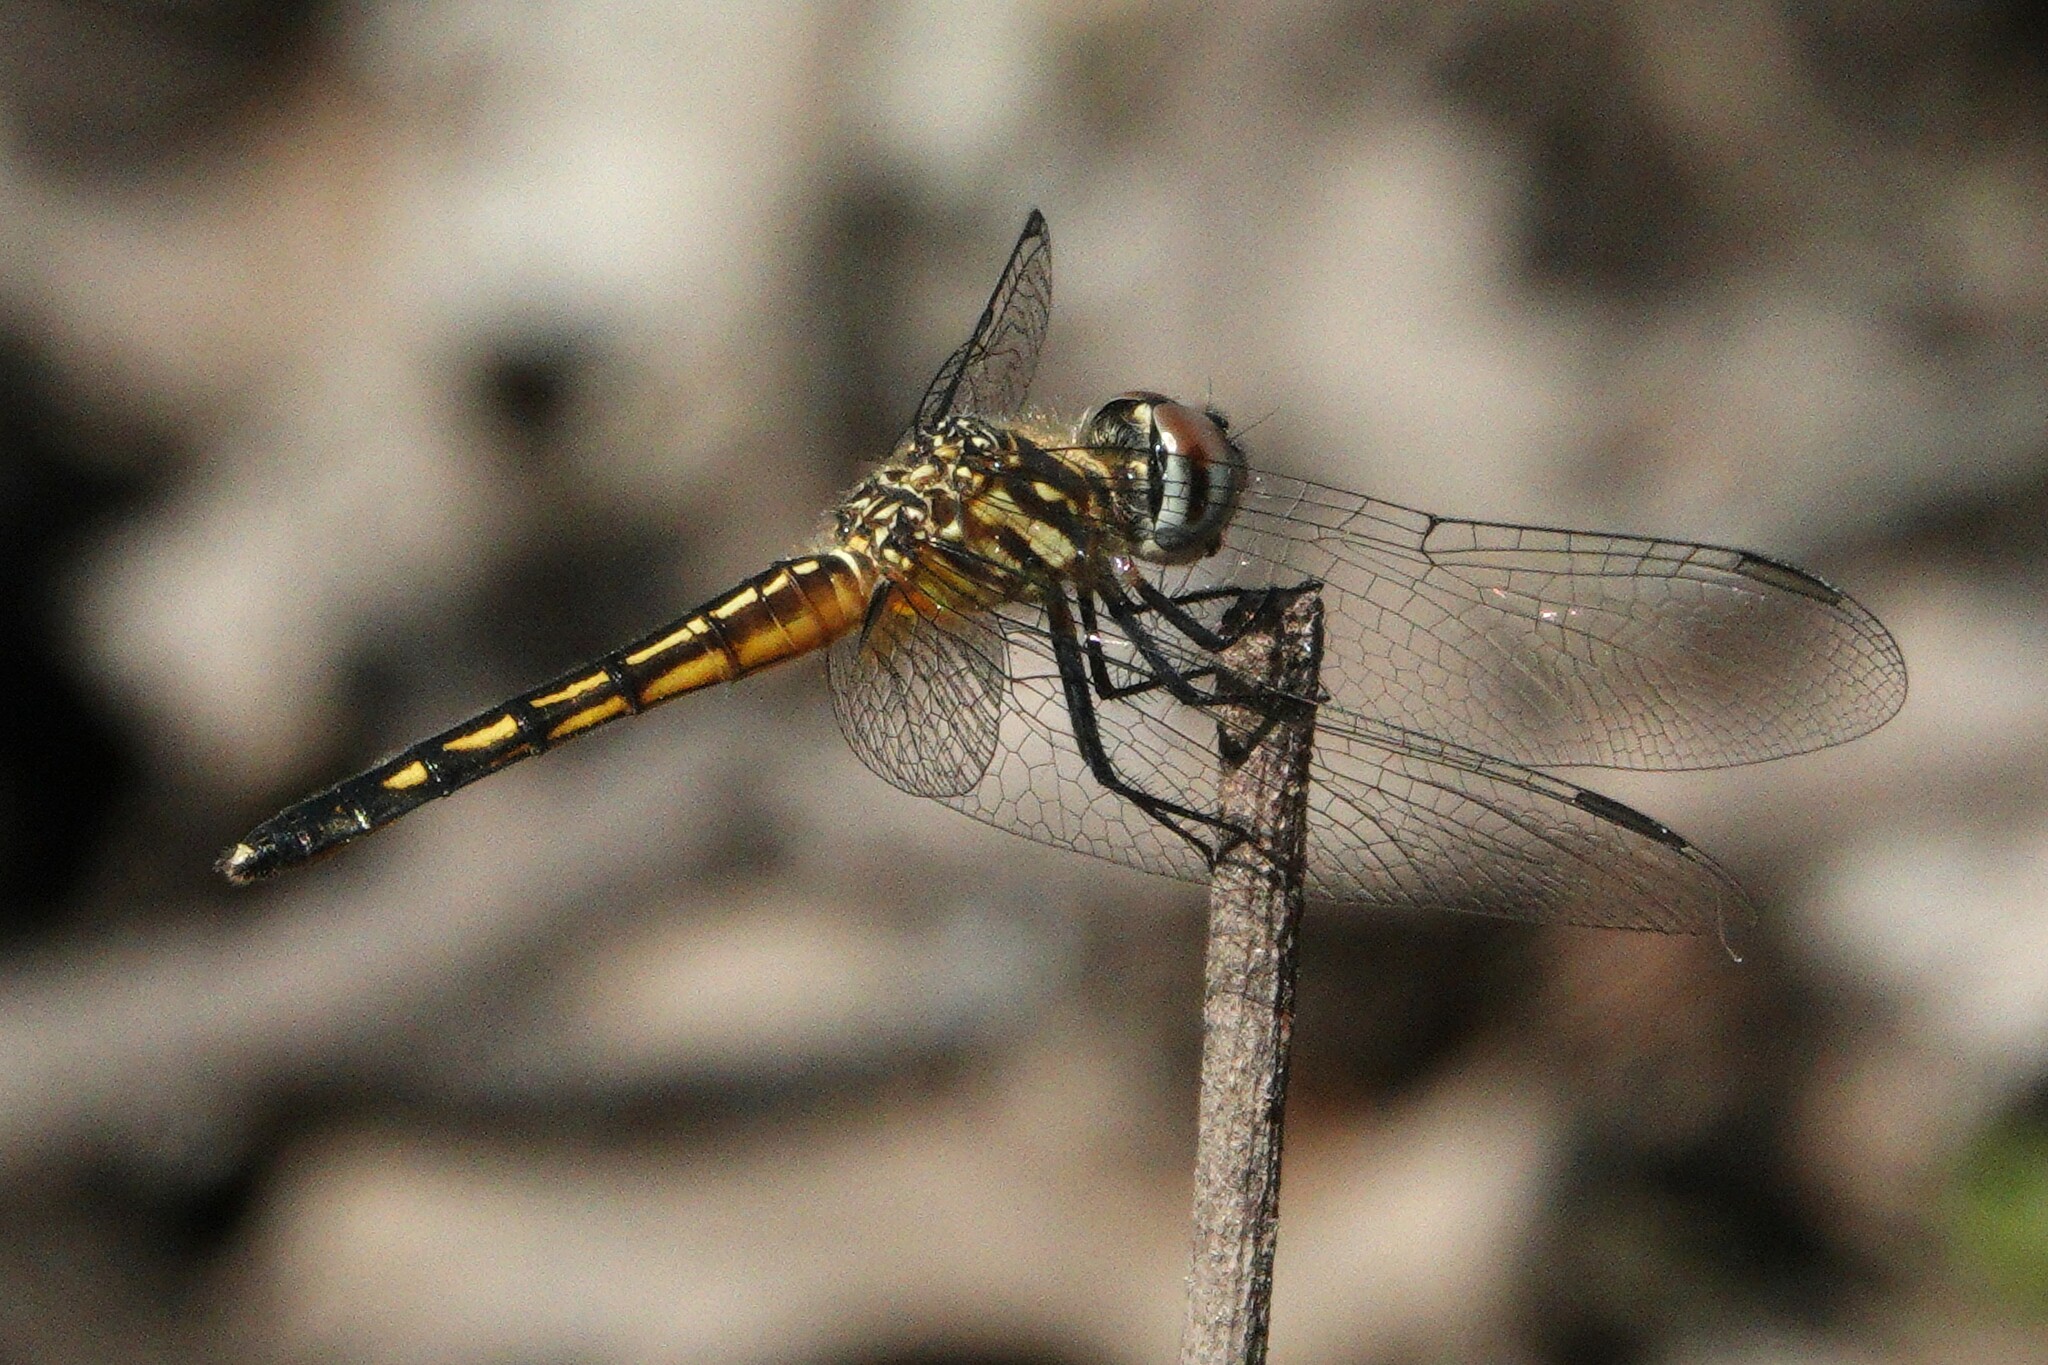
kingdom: Animalia
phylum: Arthropoda
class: Insecta
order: Odonata
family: Libellulidae
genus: Pachydiplax
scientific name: Pachydiplax longipennis
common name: Blue dasher
